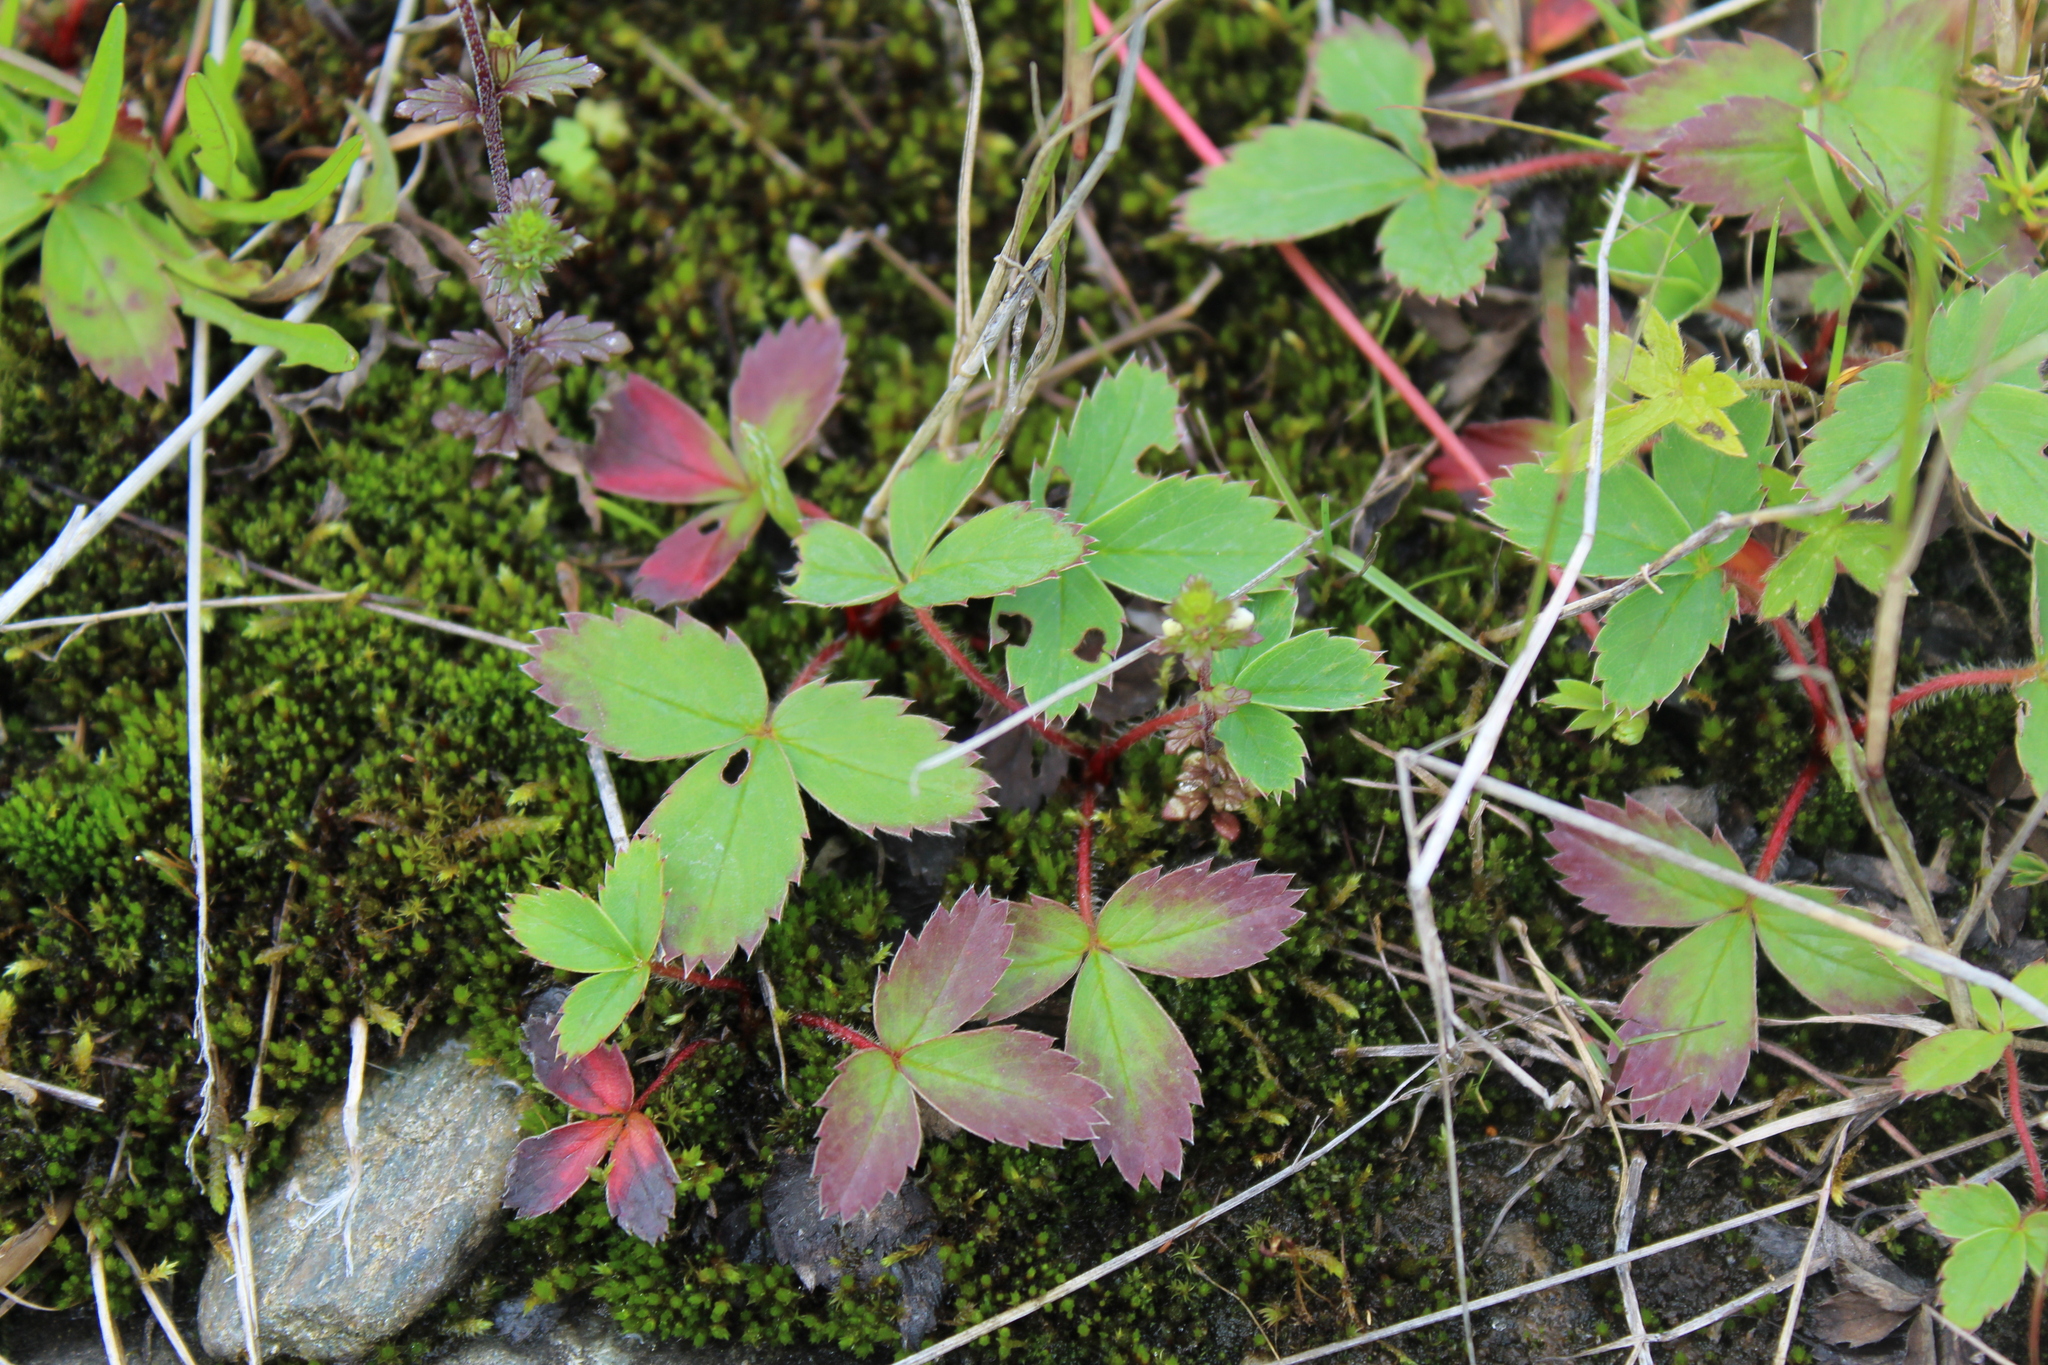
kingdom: Plantae
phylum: Tracheophyta
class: Magnoliopsida
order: Rosales
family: Rosaceae
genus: Fragaria
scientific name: Fragaria virginiana
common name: Thickleaved wild strawberry
